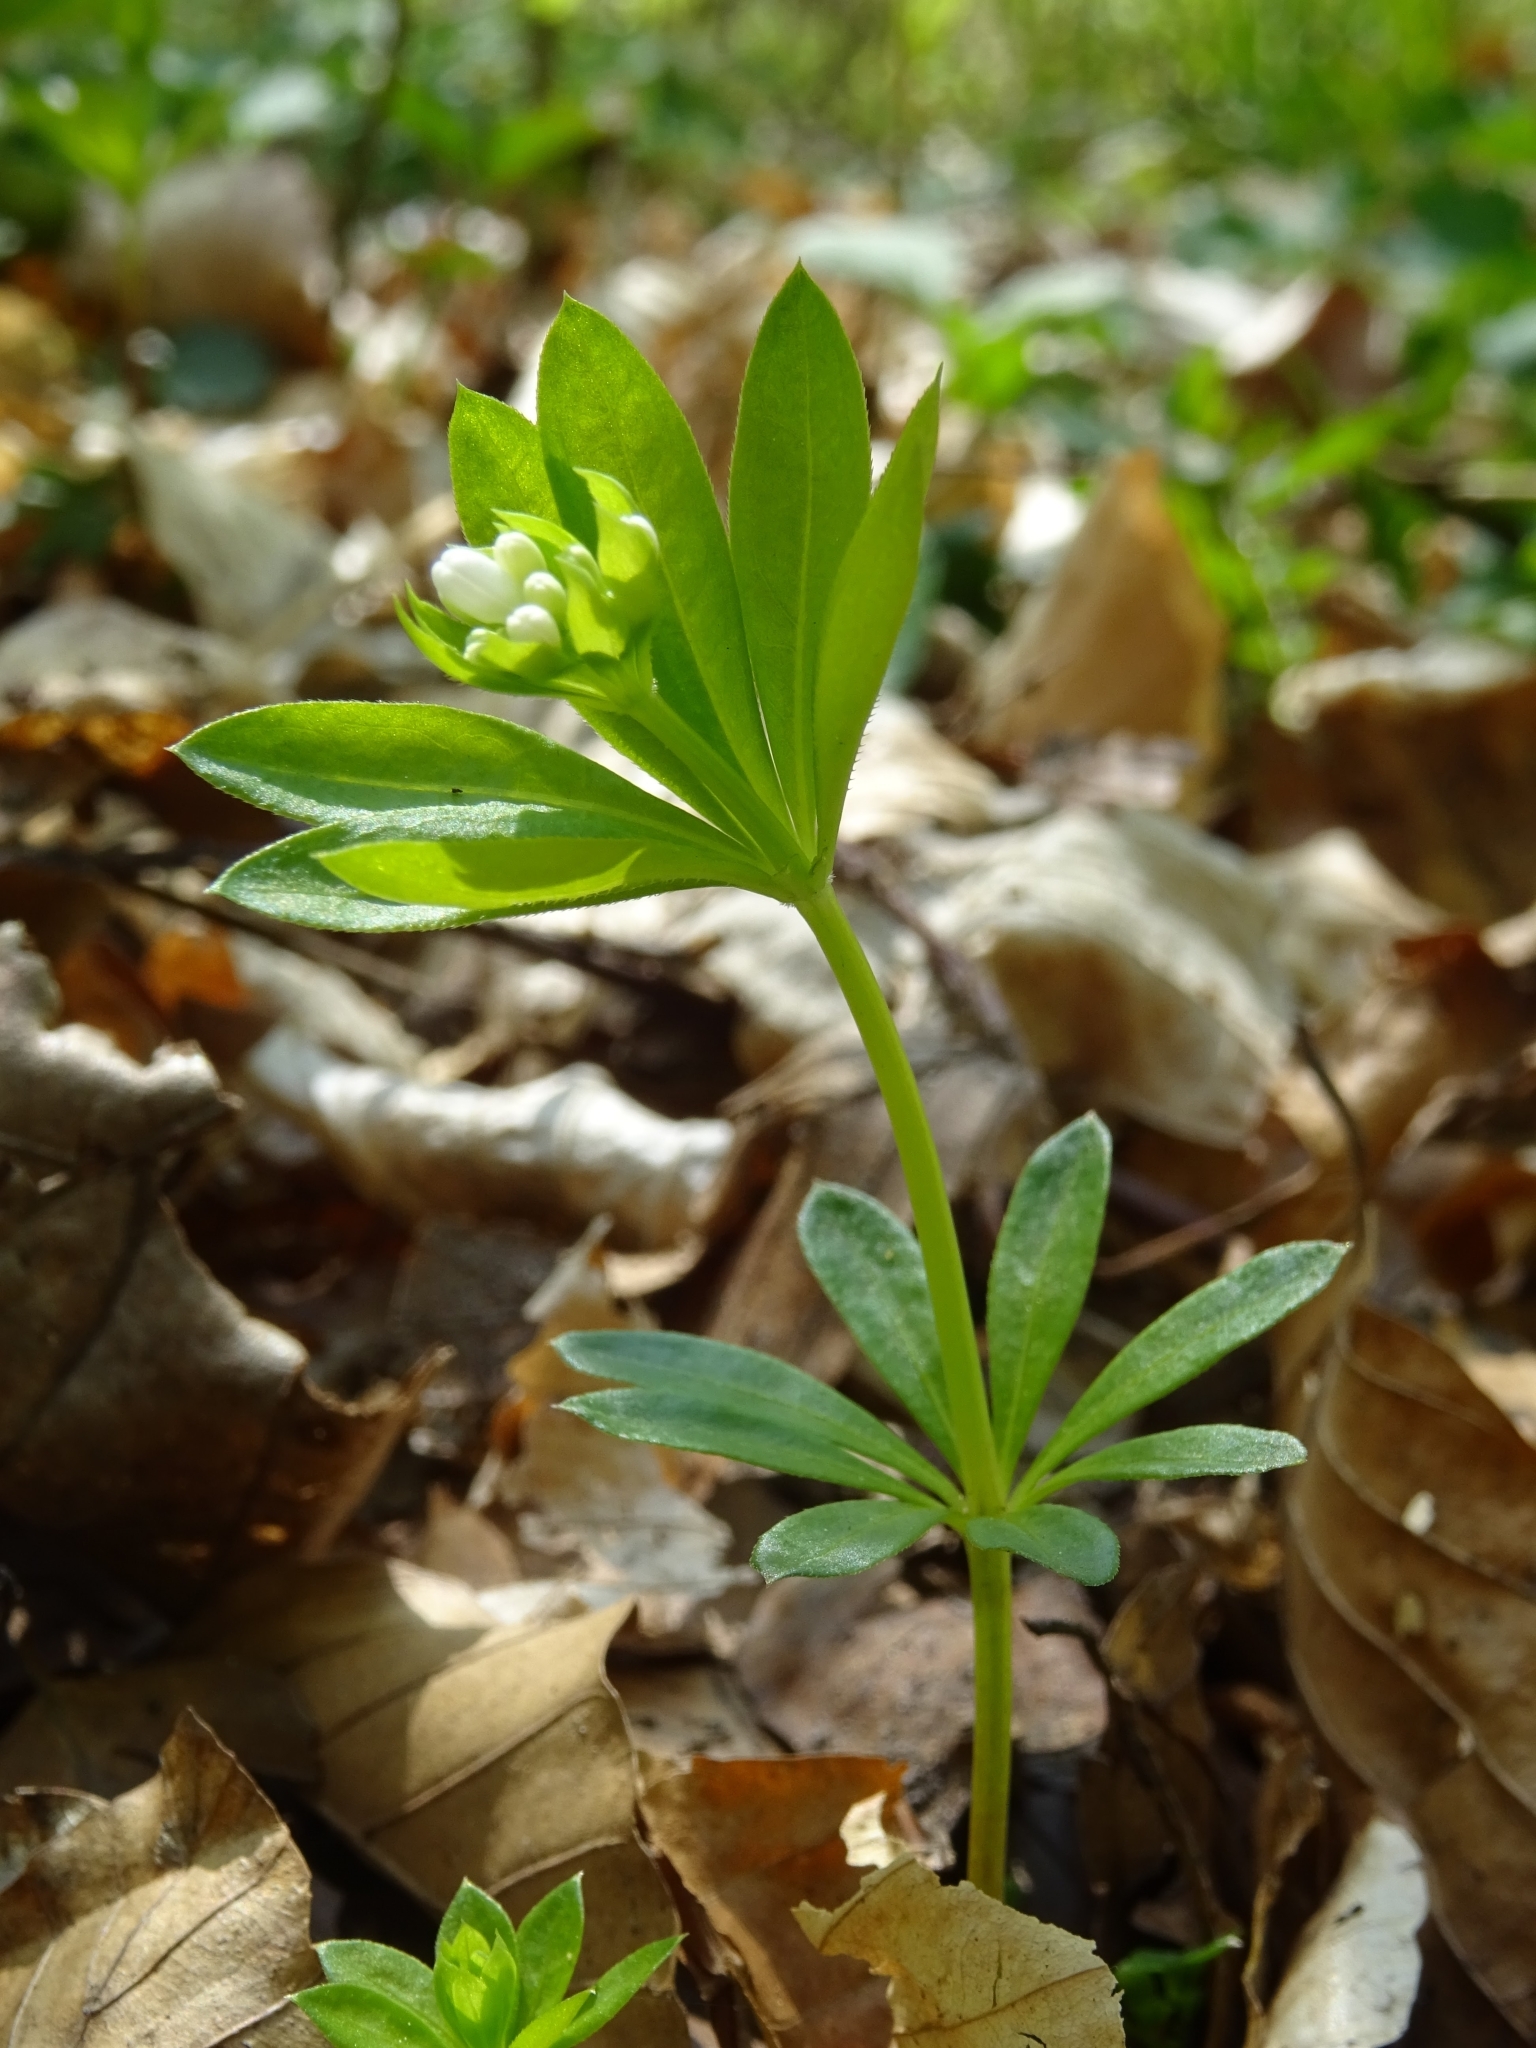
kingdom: Plantae
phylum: Tracheophyta
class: Magnoliopsida
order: Gentianales
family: Rubiaceae
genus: Galium
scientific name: Galium odoratum
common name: Sweet woodruff
